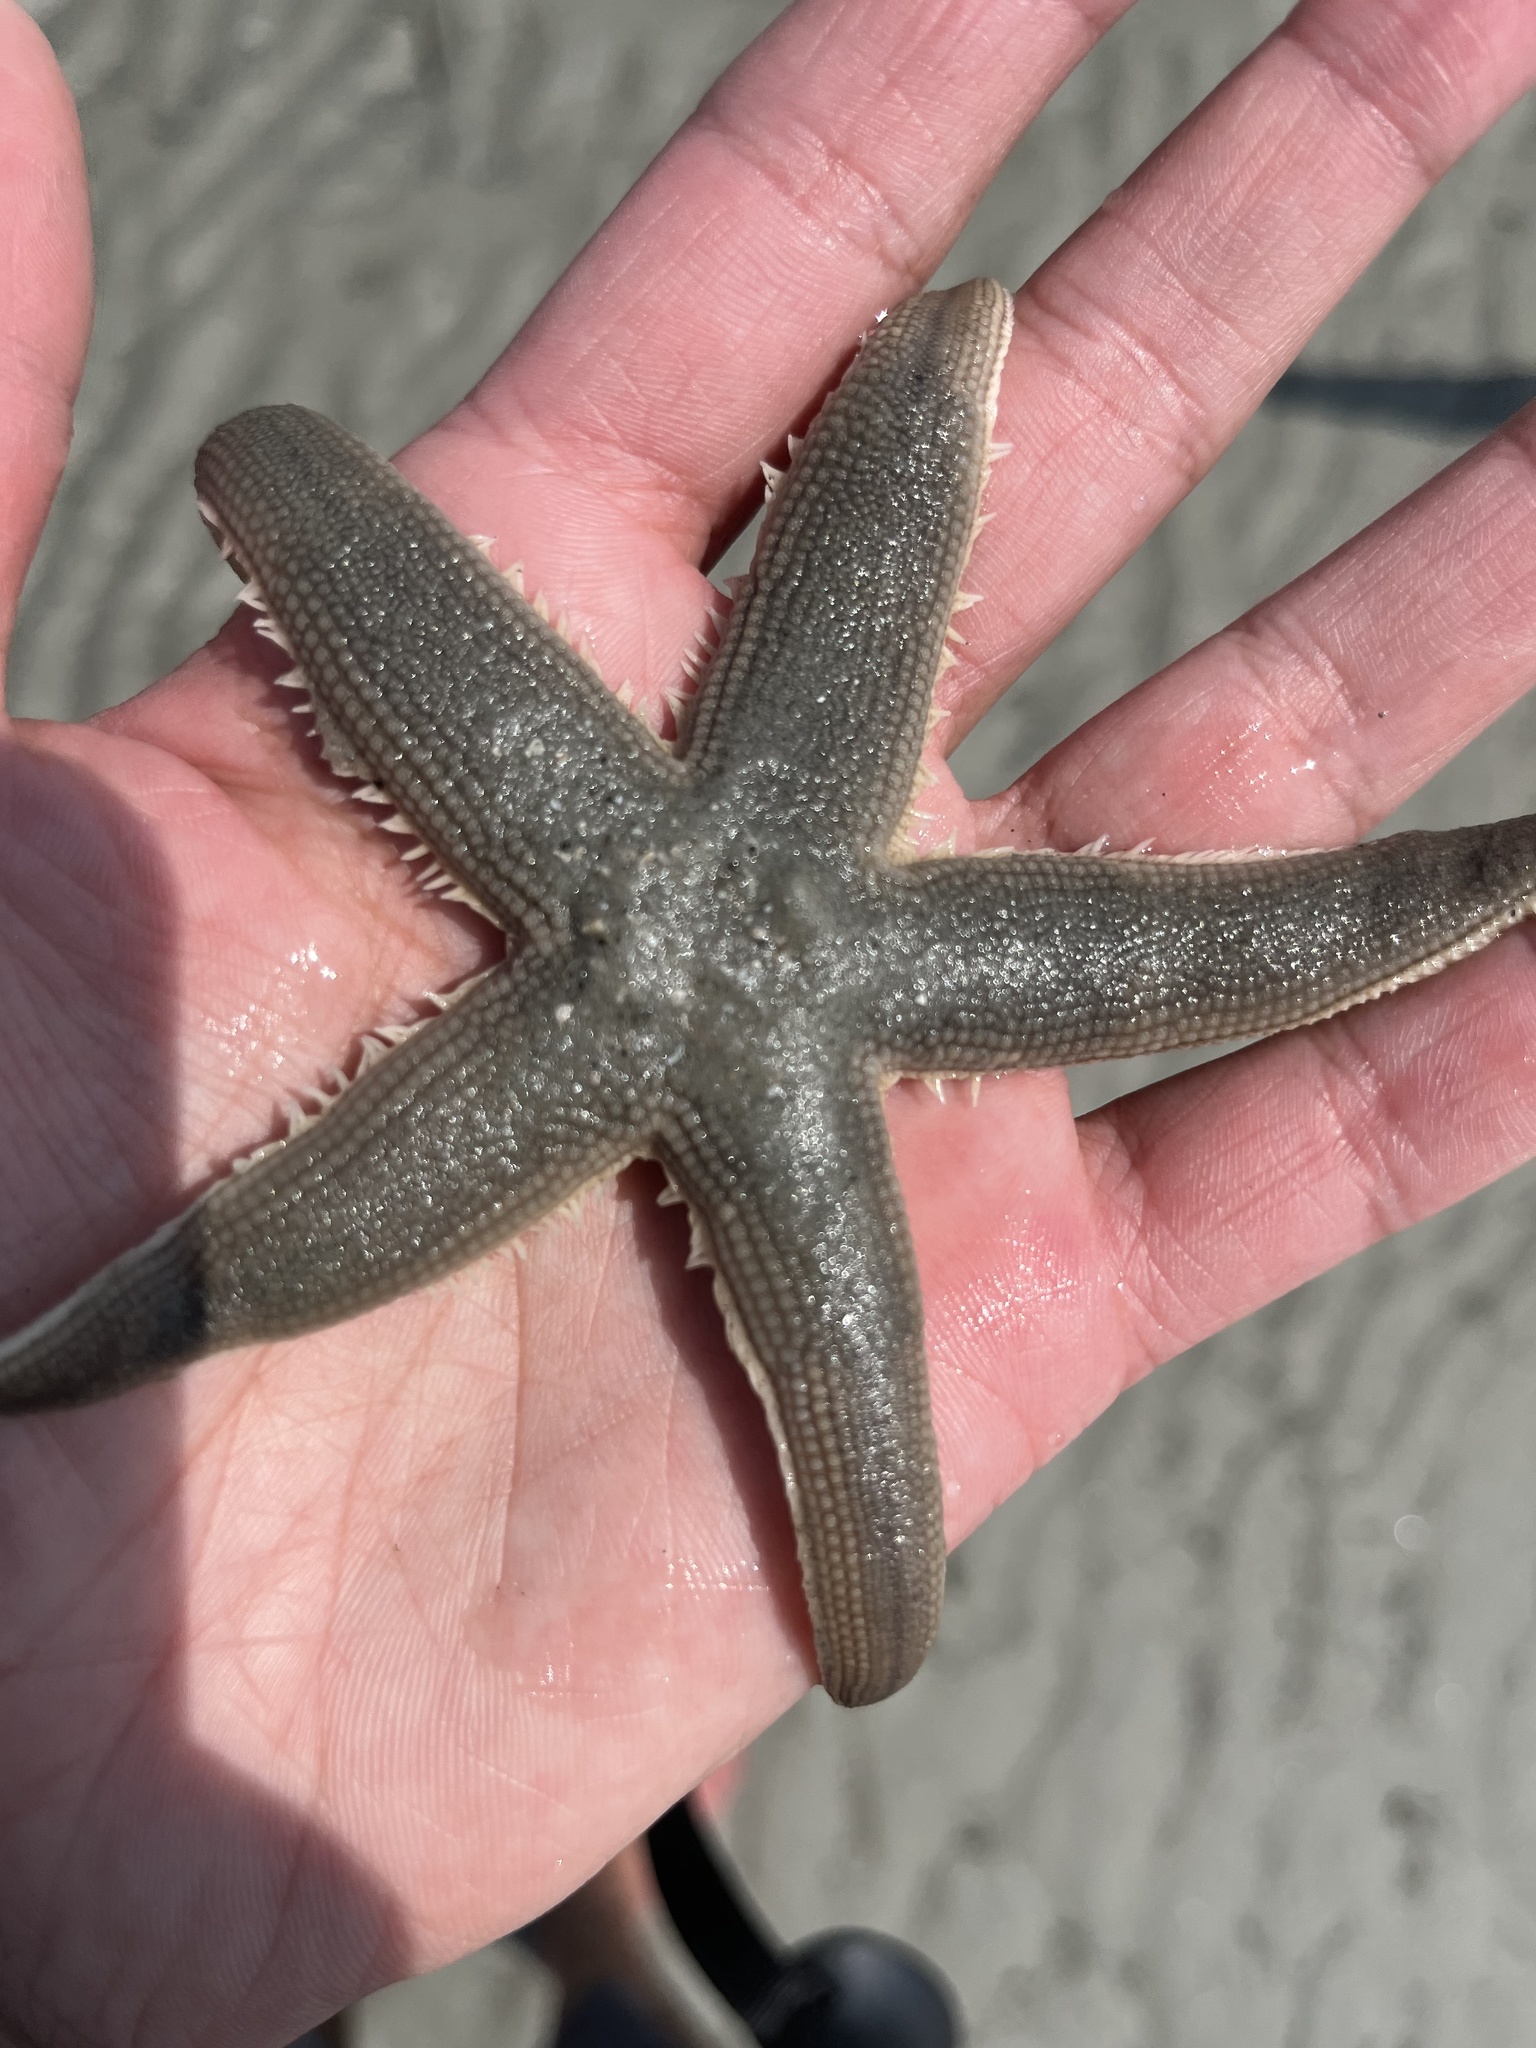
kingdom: Animalia
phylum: Echinodermata
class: Asteroidea
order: Paxillosida
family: Luidiidae
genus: Luidia
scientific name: Luidia clathrata
